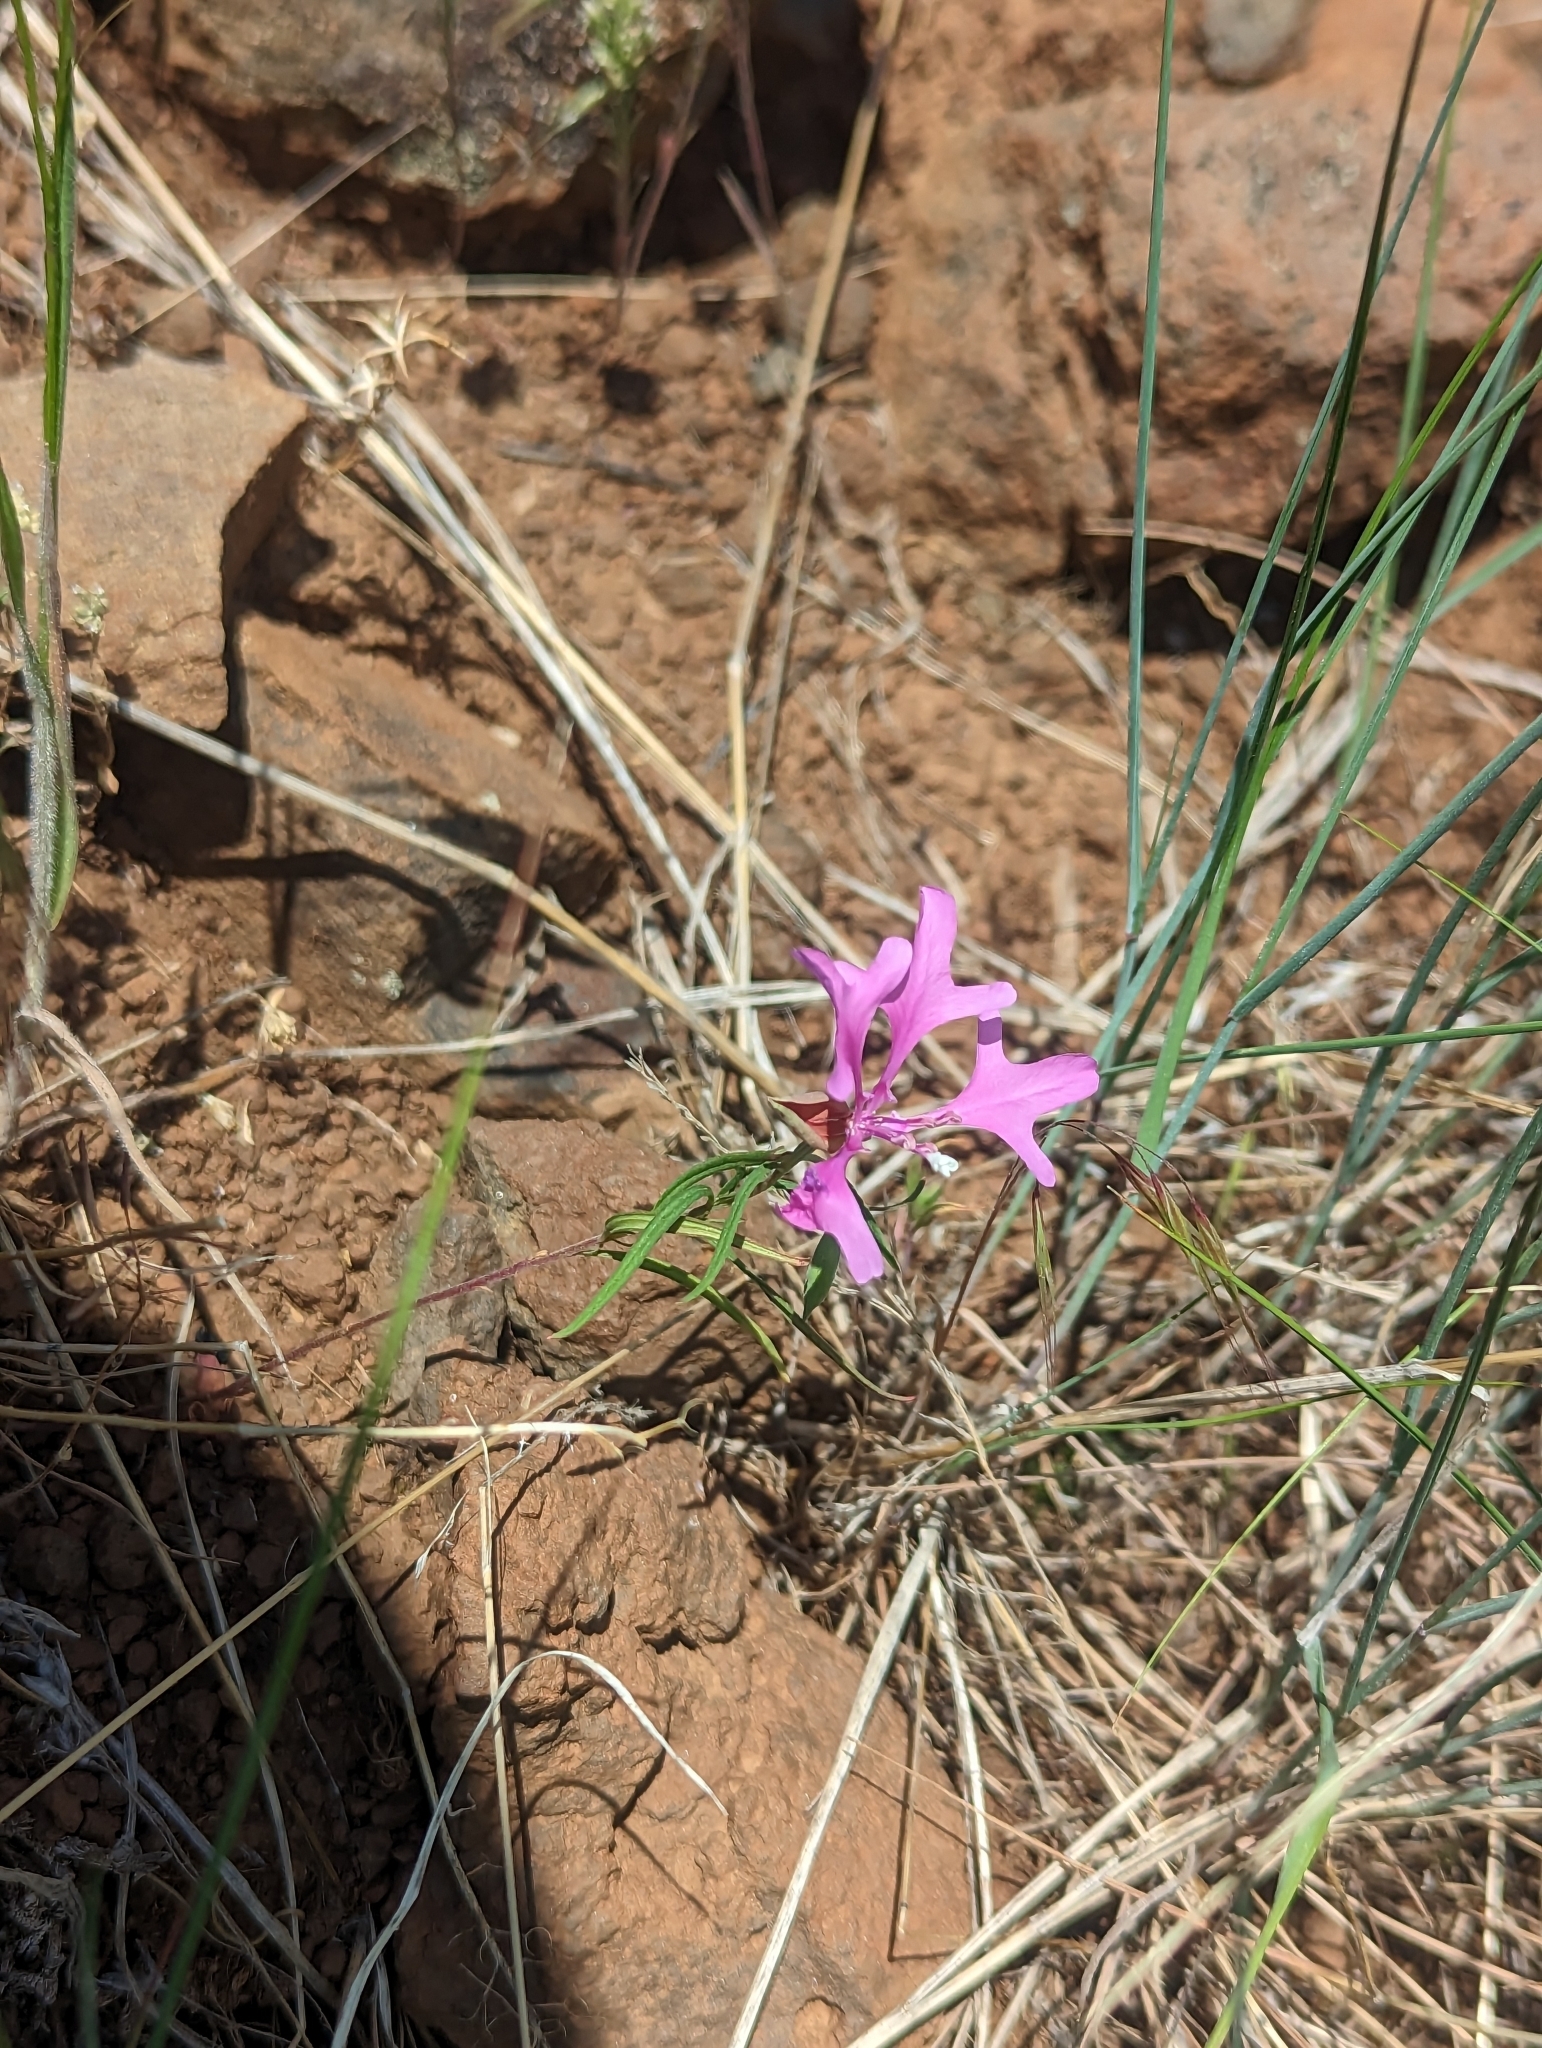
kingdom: Plantae
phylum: Tracheophyta
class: Magnoliopsida
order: Myrtales
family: Onagraceae
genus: Clarkia
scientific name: Clarkia pulchella
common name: Deer horn
